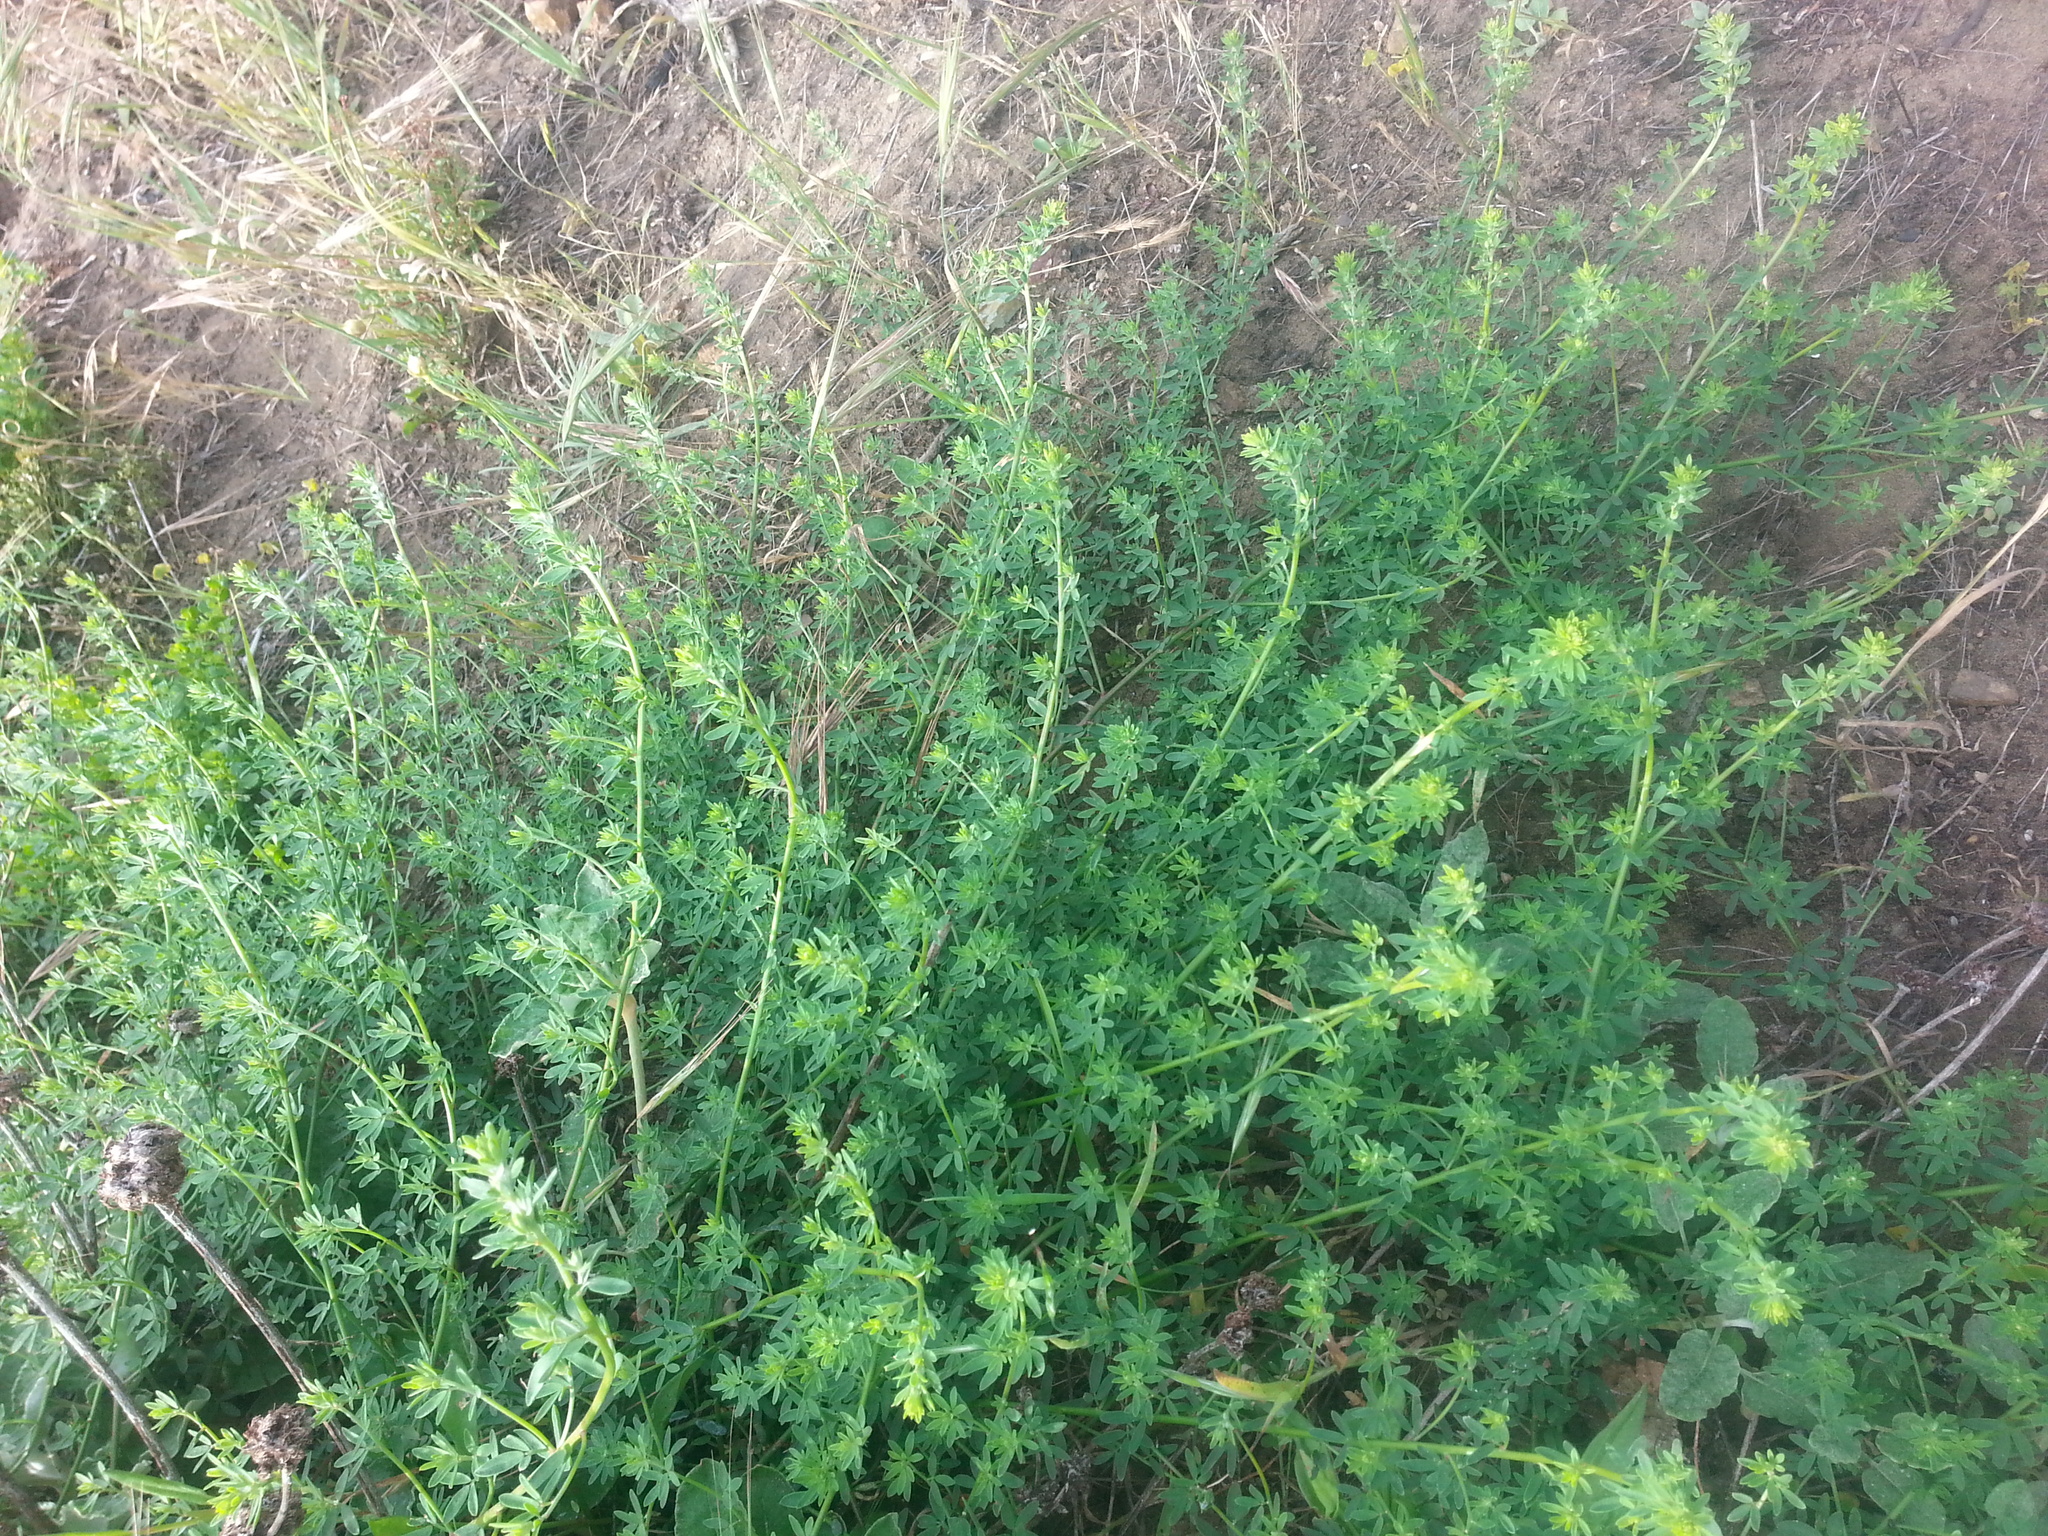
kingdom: Plantae
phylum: Tracheophyta
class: Magnoliopsida
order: Fabales
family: Fabaceae
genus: Acmispon
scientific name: Acmispon glaber
